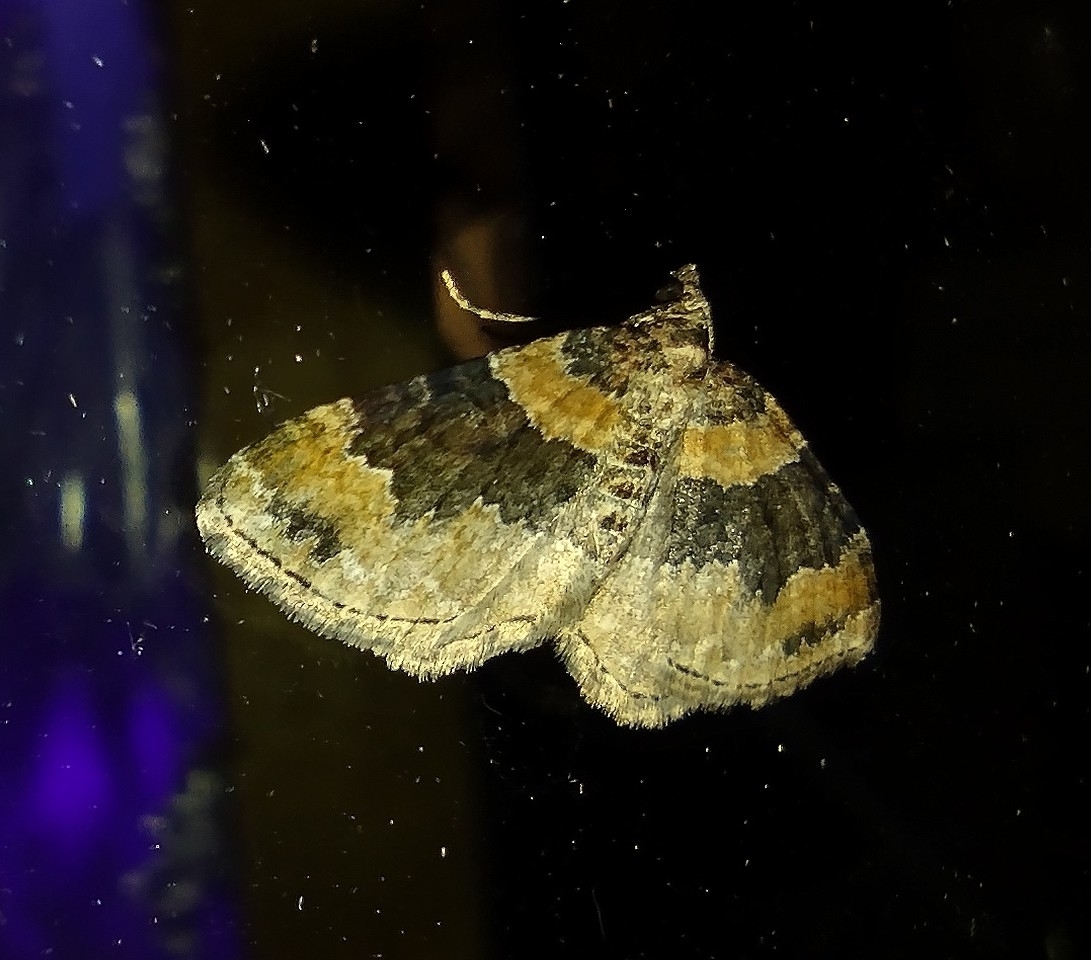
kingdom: Animalia
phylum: Arthropoda
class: Insecta
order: Lepidoptera
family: Geometridae
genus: Xanthorhoe
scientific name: Xanthorhoe ferrugata
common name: Dark-barred twin-spot carpet
